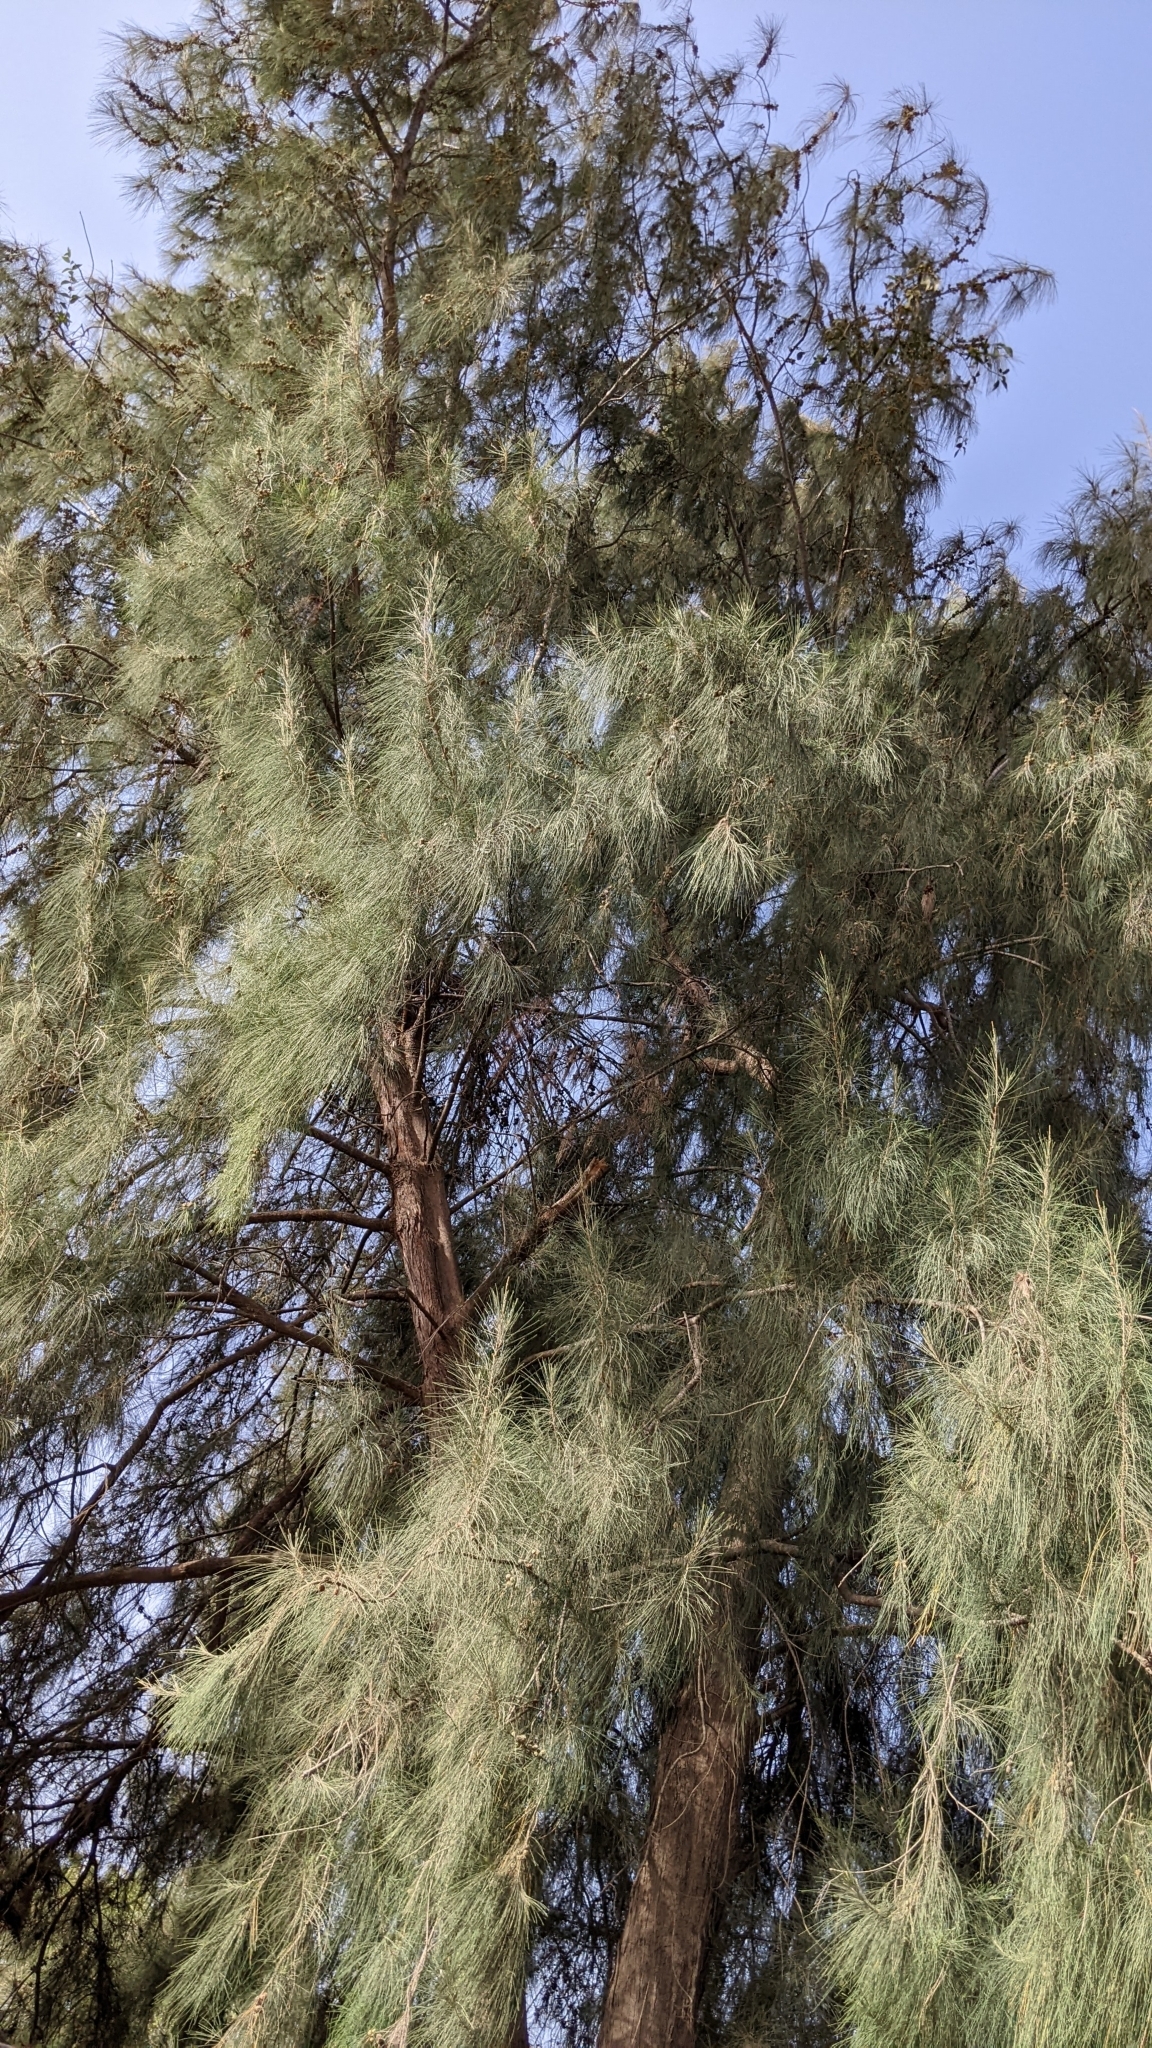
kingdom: Plantae
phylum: Tracheophyta
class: Magnoliopsida
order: Fagales
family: Casuarinaceae
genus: Casuarina
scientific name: Casuarina equisetifolia
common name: Beach sheoak
